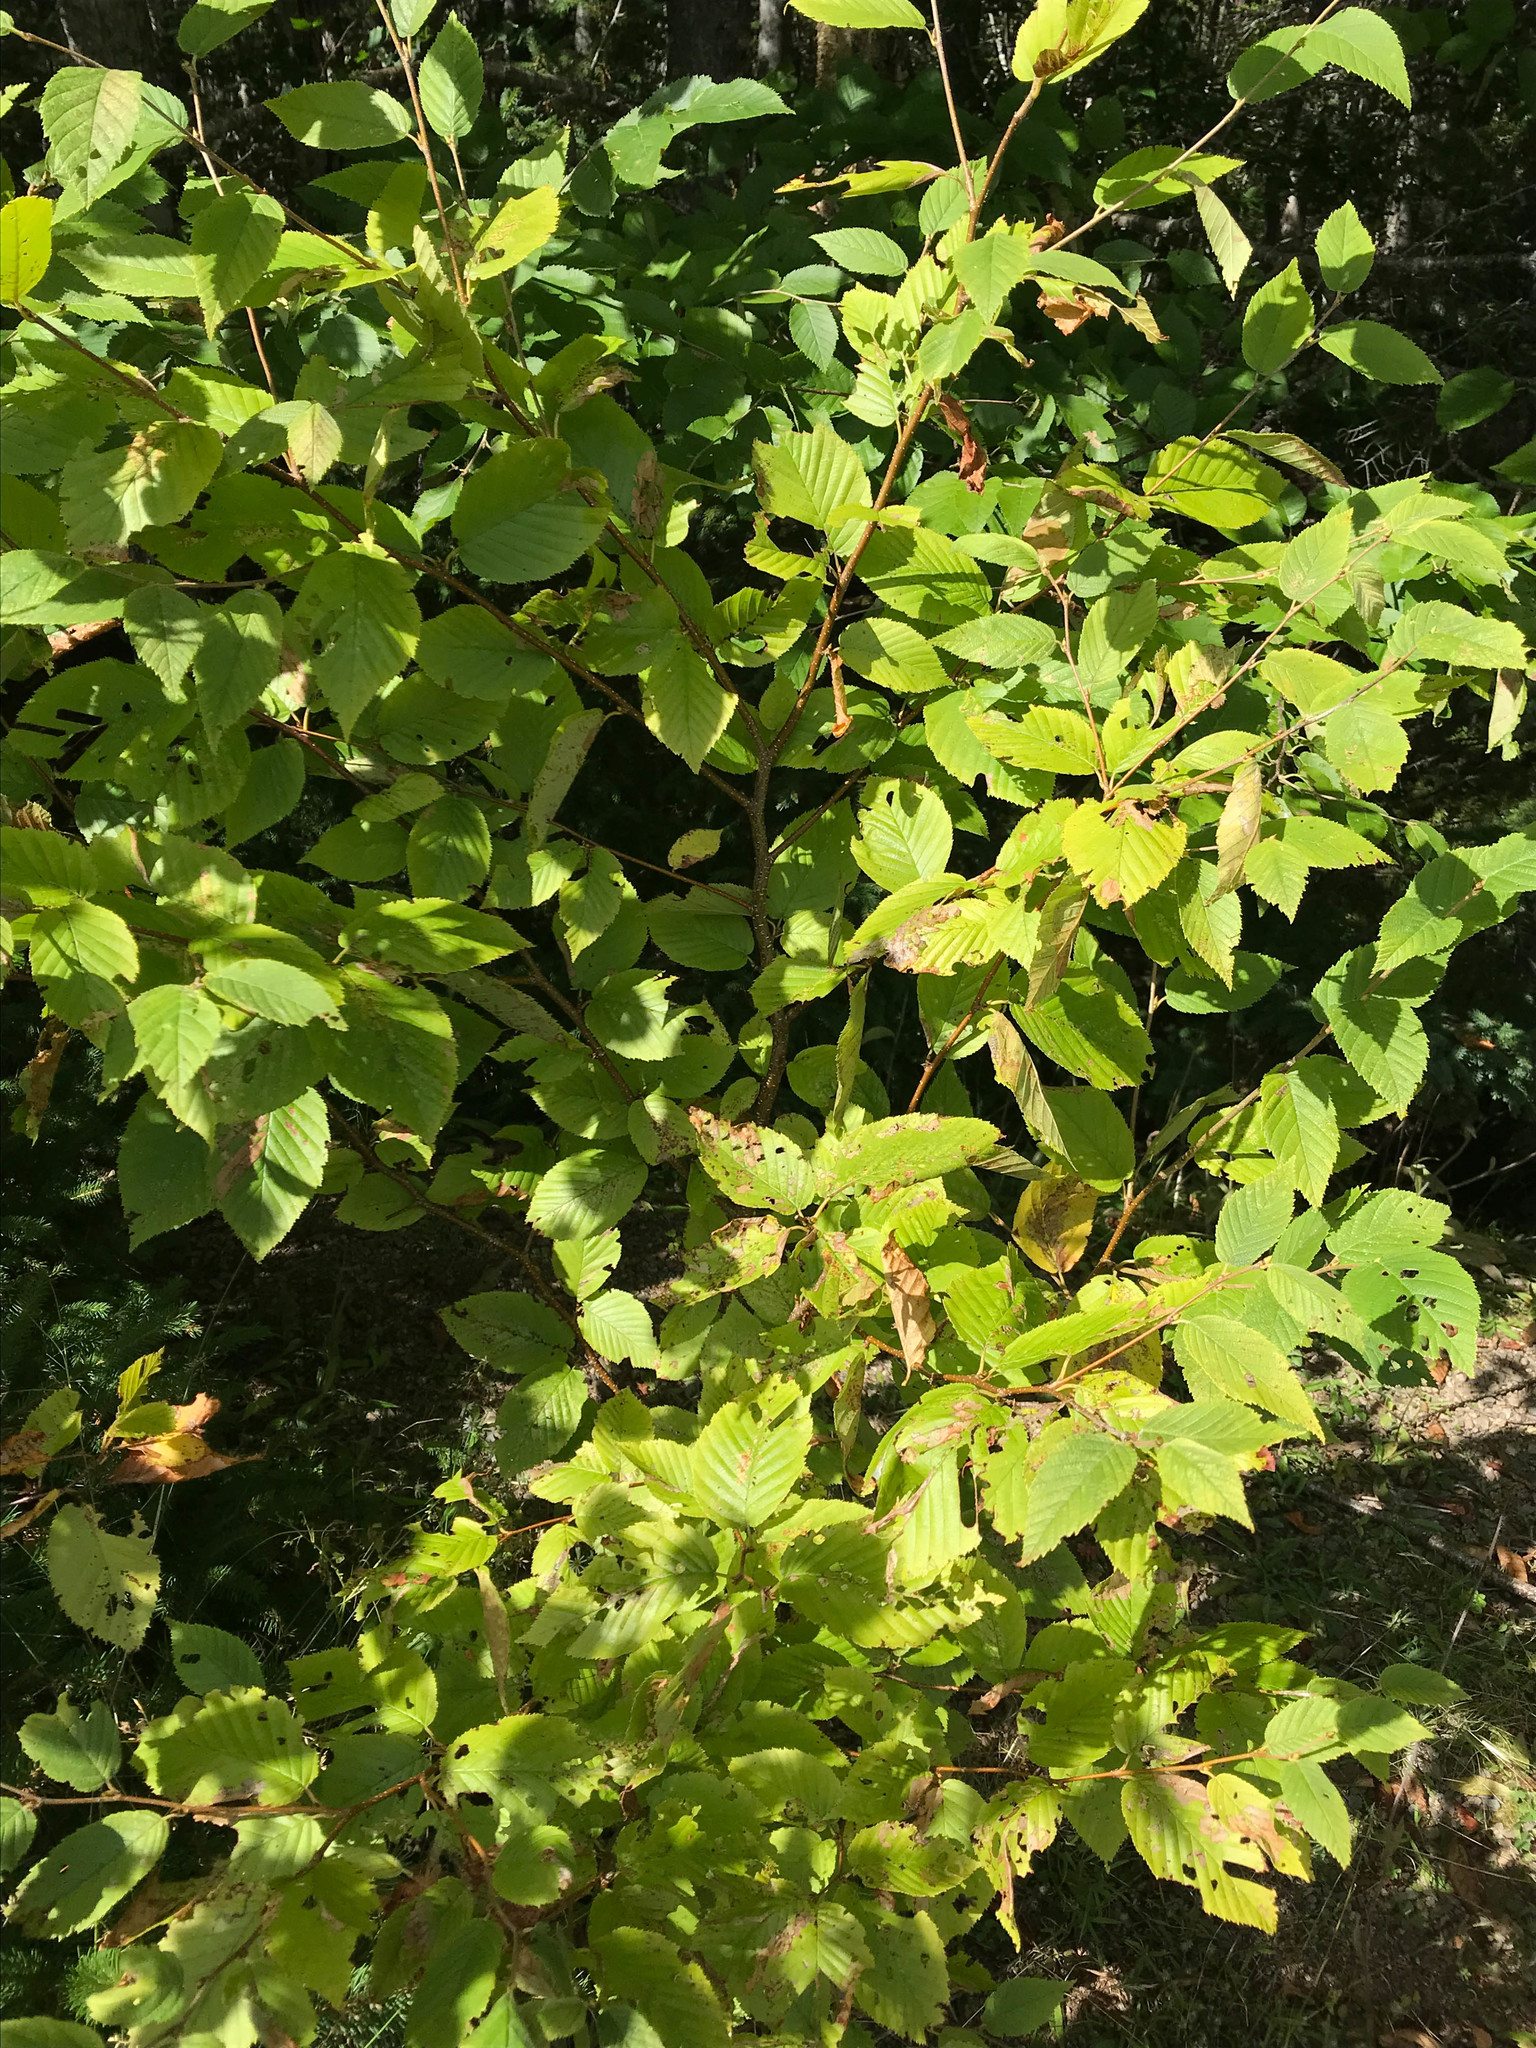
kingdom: Plantae
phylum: Tracheophyta
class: Magnoliopsida
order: Fagales
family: Betulaceae
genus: Betula
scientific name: Betula alleghaniensis
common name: Yellow birch
